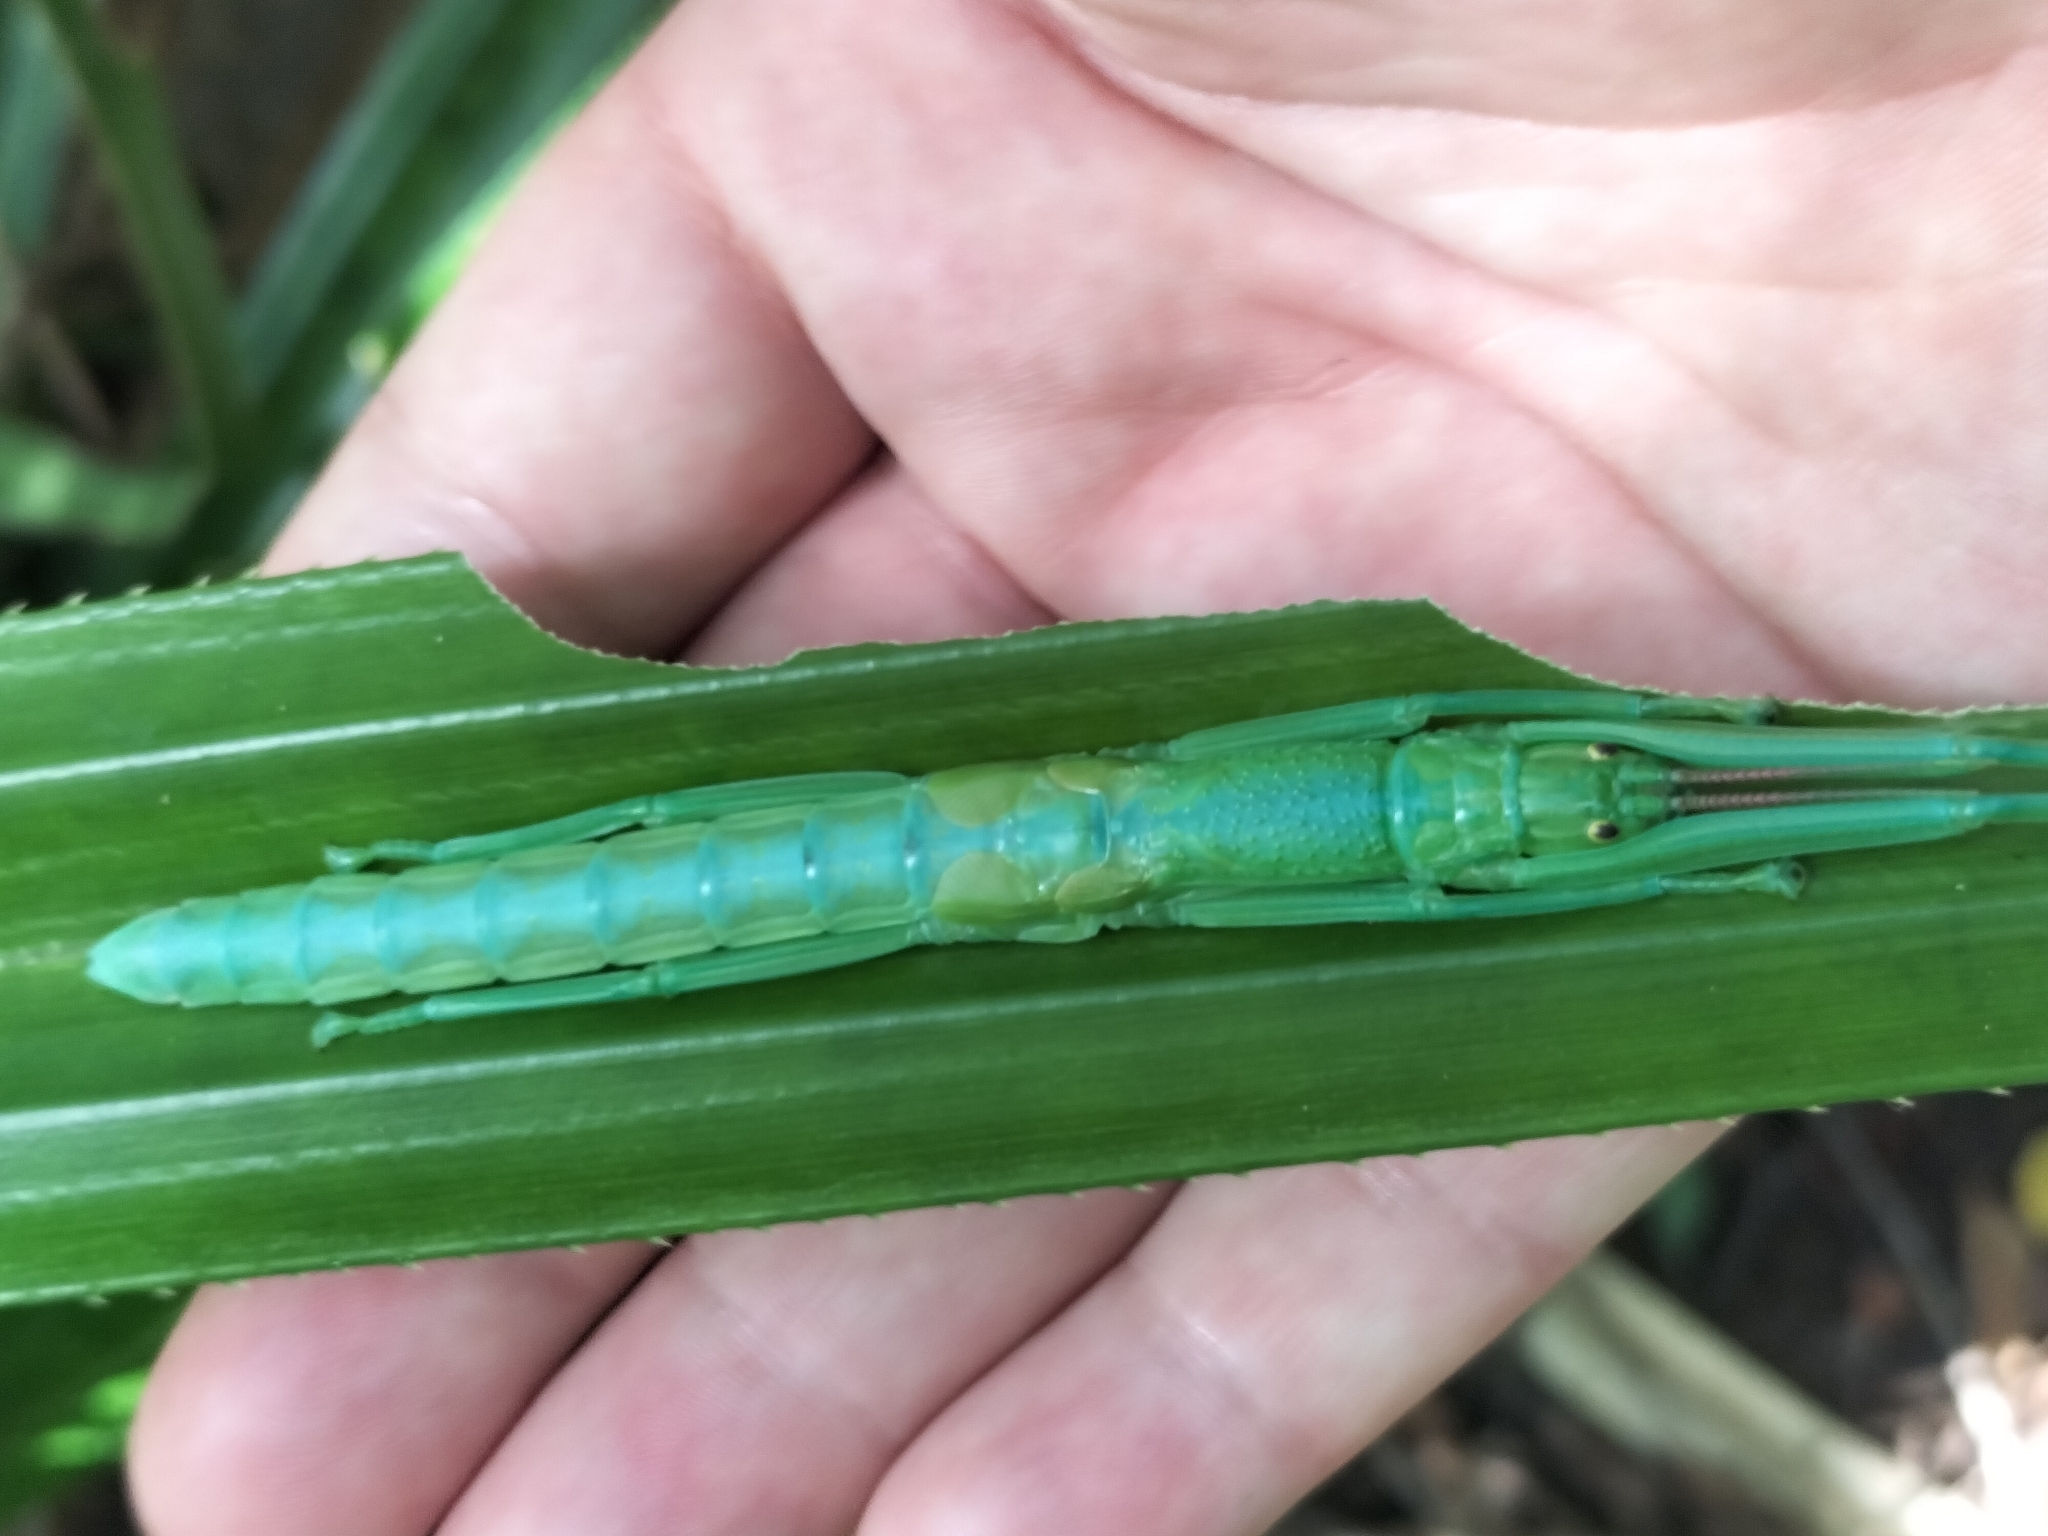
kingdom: Animalia
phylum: Arthropoda
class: Insecta
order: Phasmida
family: Phasmatidae
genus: Megacrania
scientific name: Megacrania batesii
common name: Peppermint stick-insect
